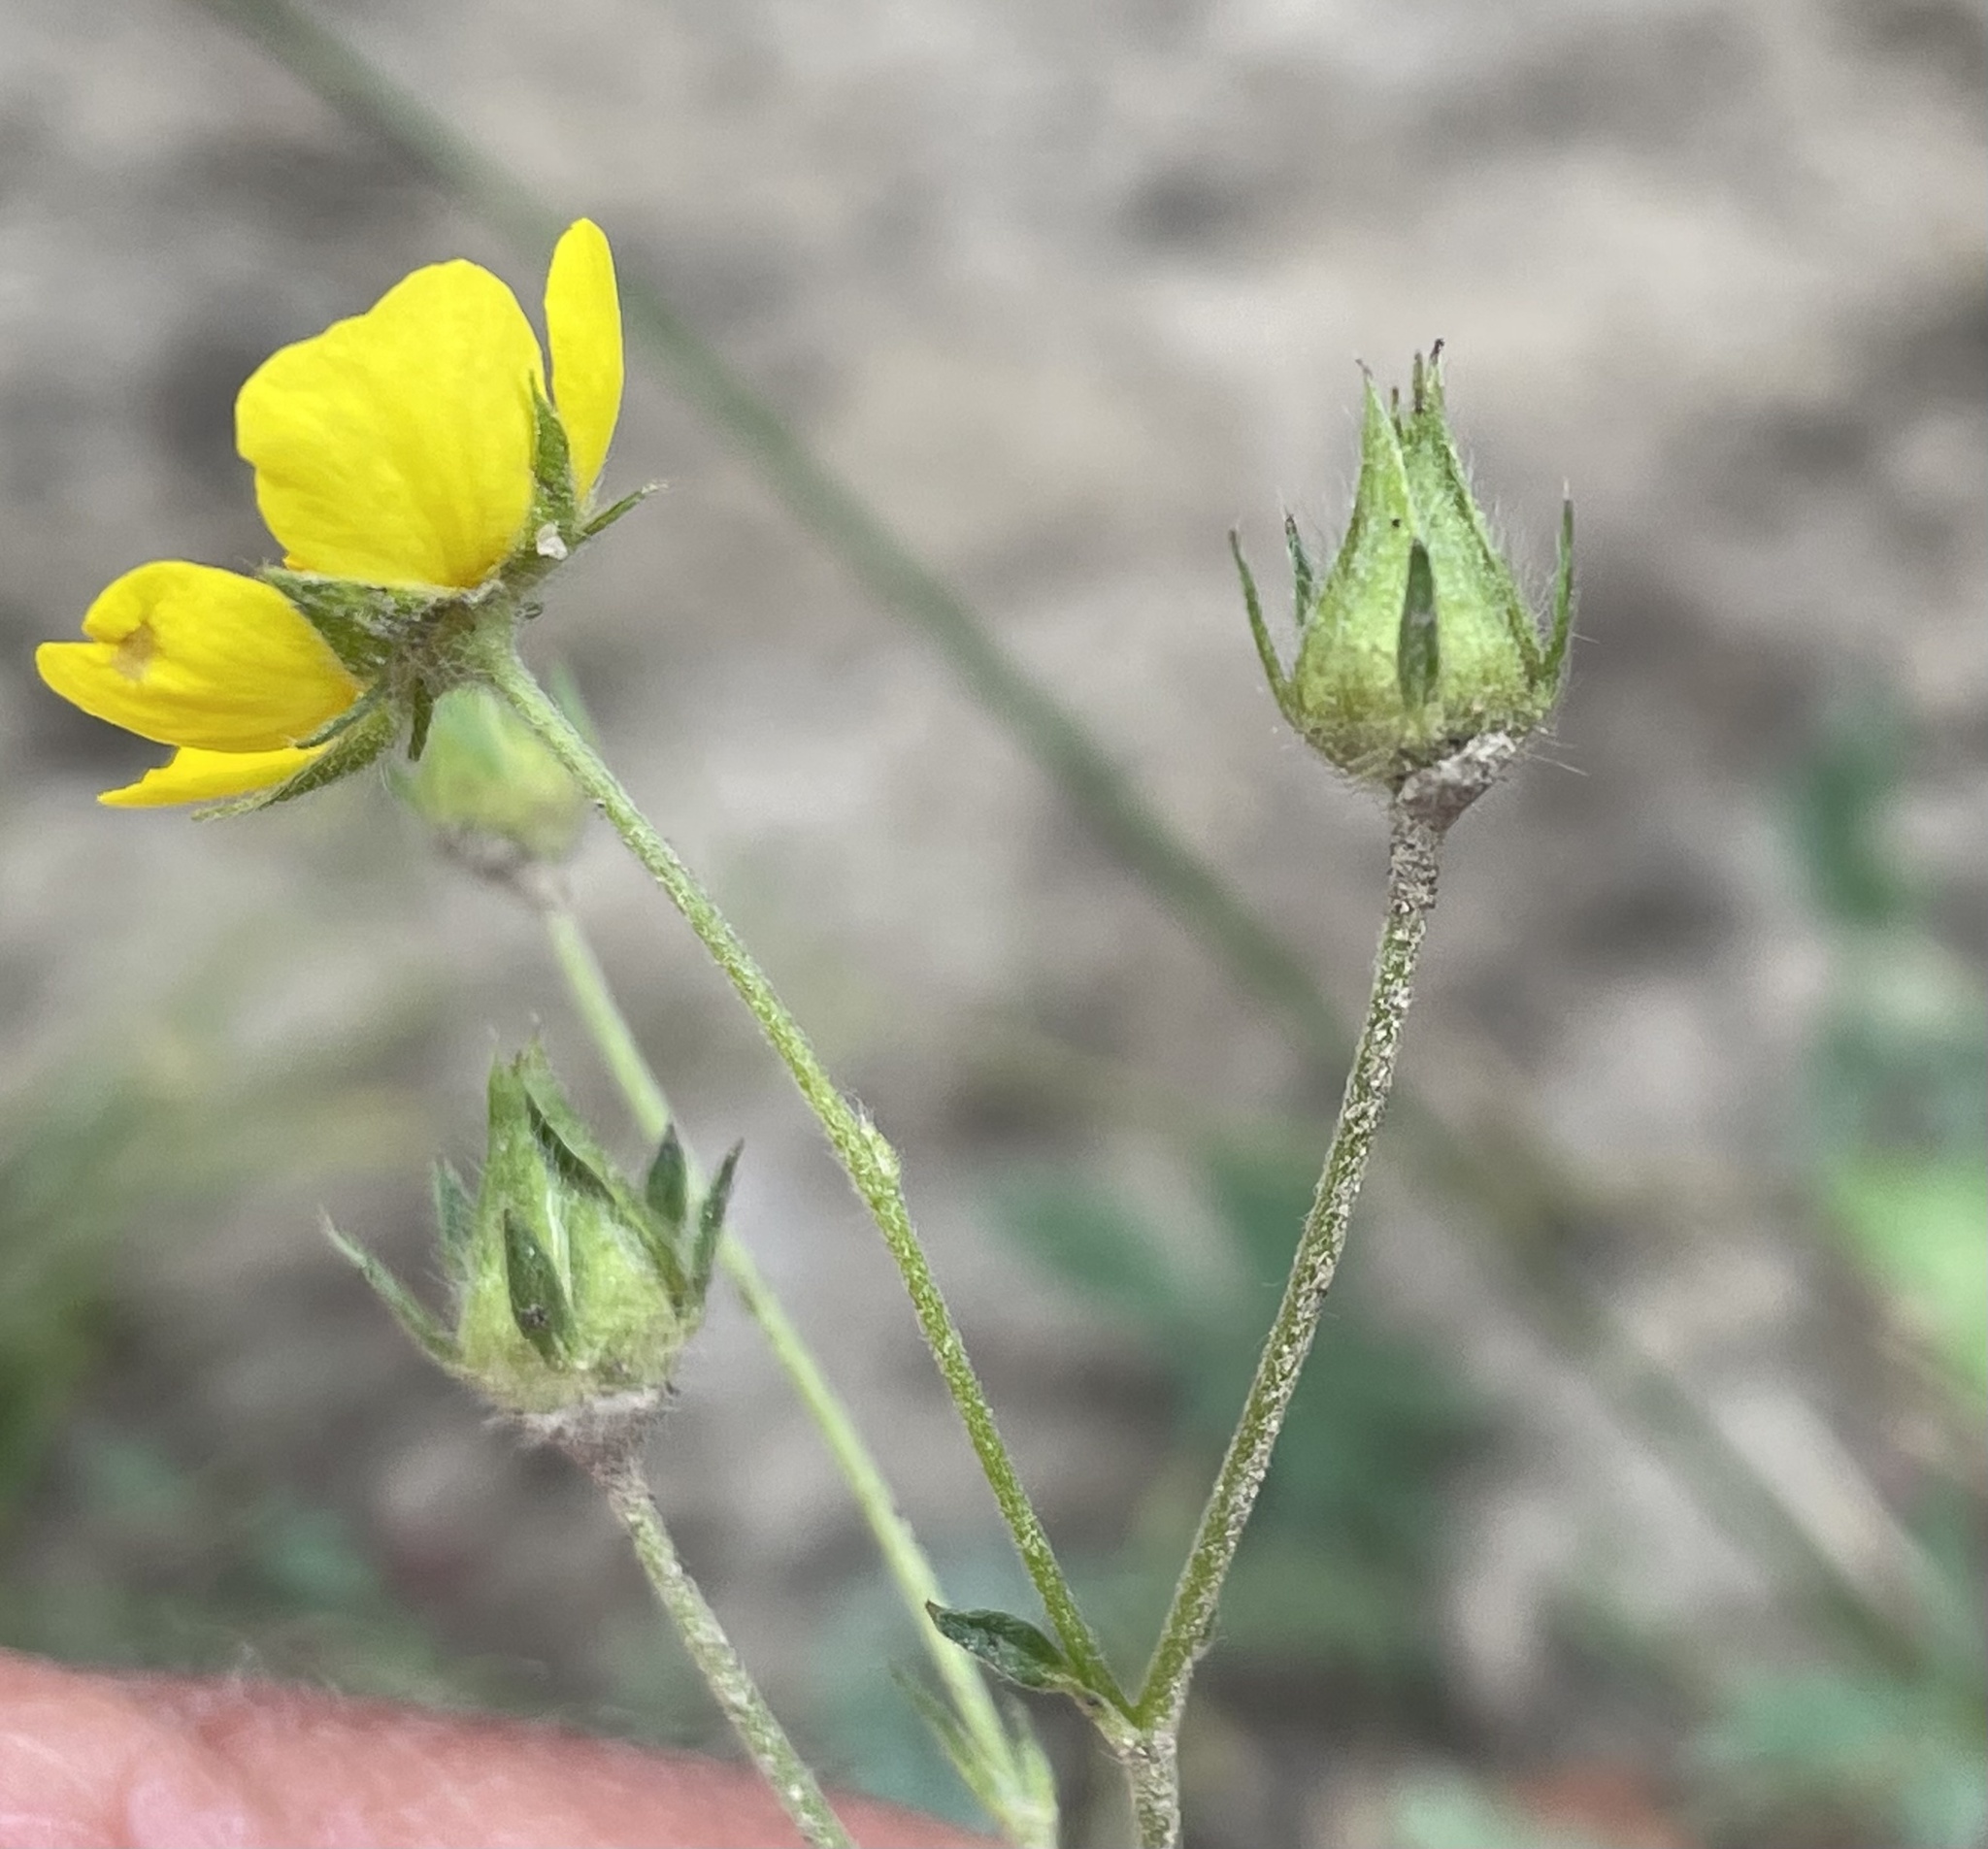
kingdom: Plantae
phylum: Tracheophyta
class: Magnoliopsida
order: Rosales
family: Rosaceae
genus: Potentilla
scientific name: Potentilla glaucophylla
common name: Blue-leaved cinquefoil
